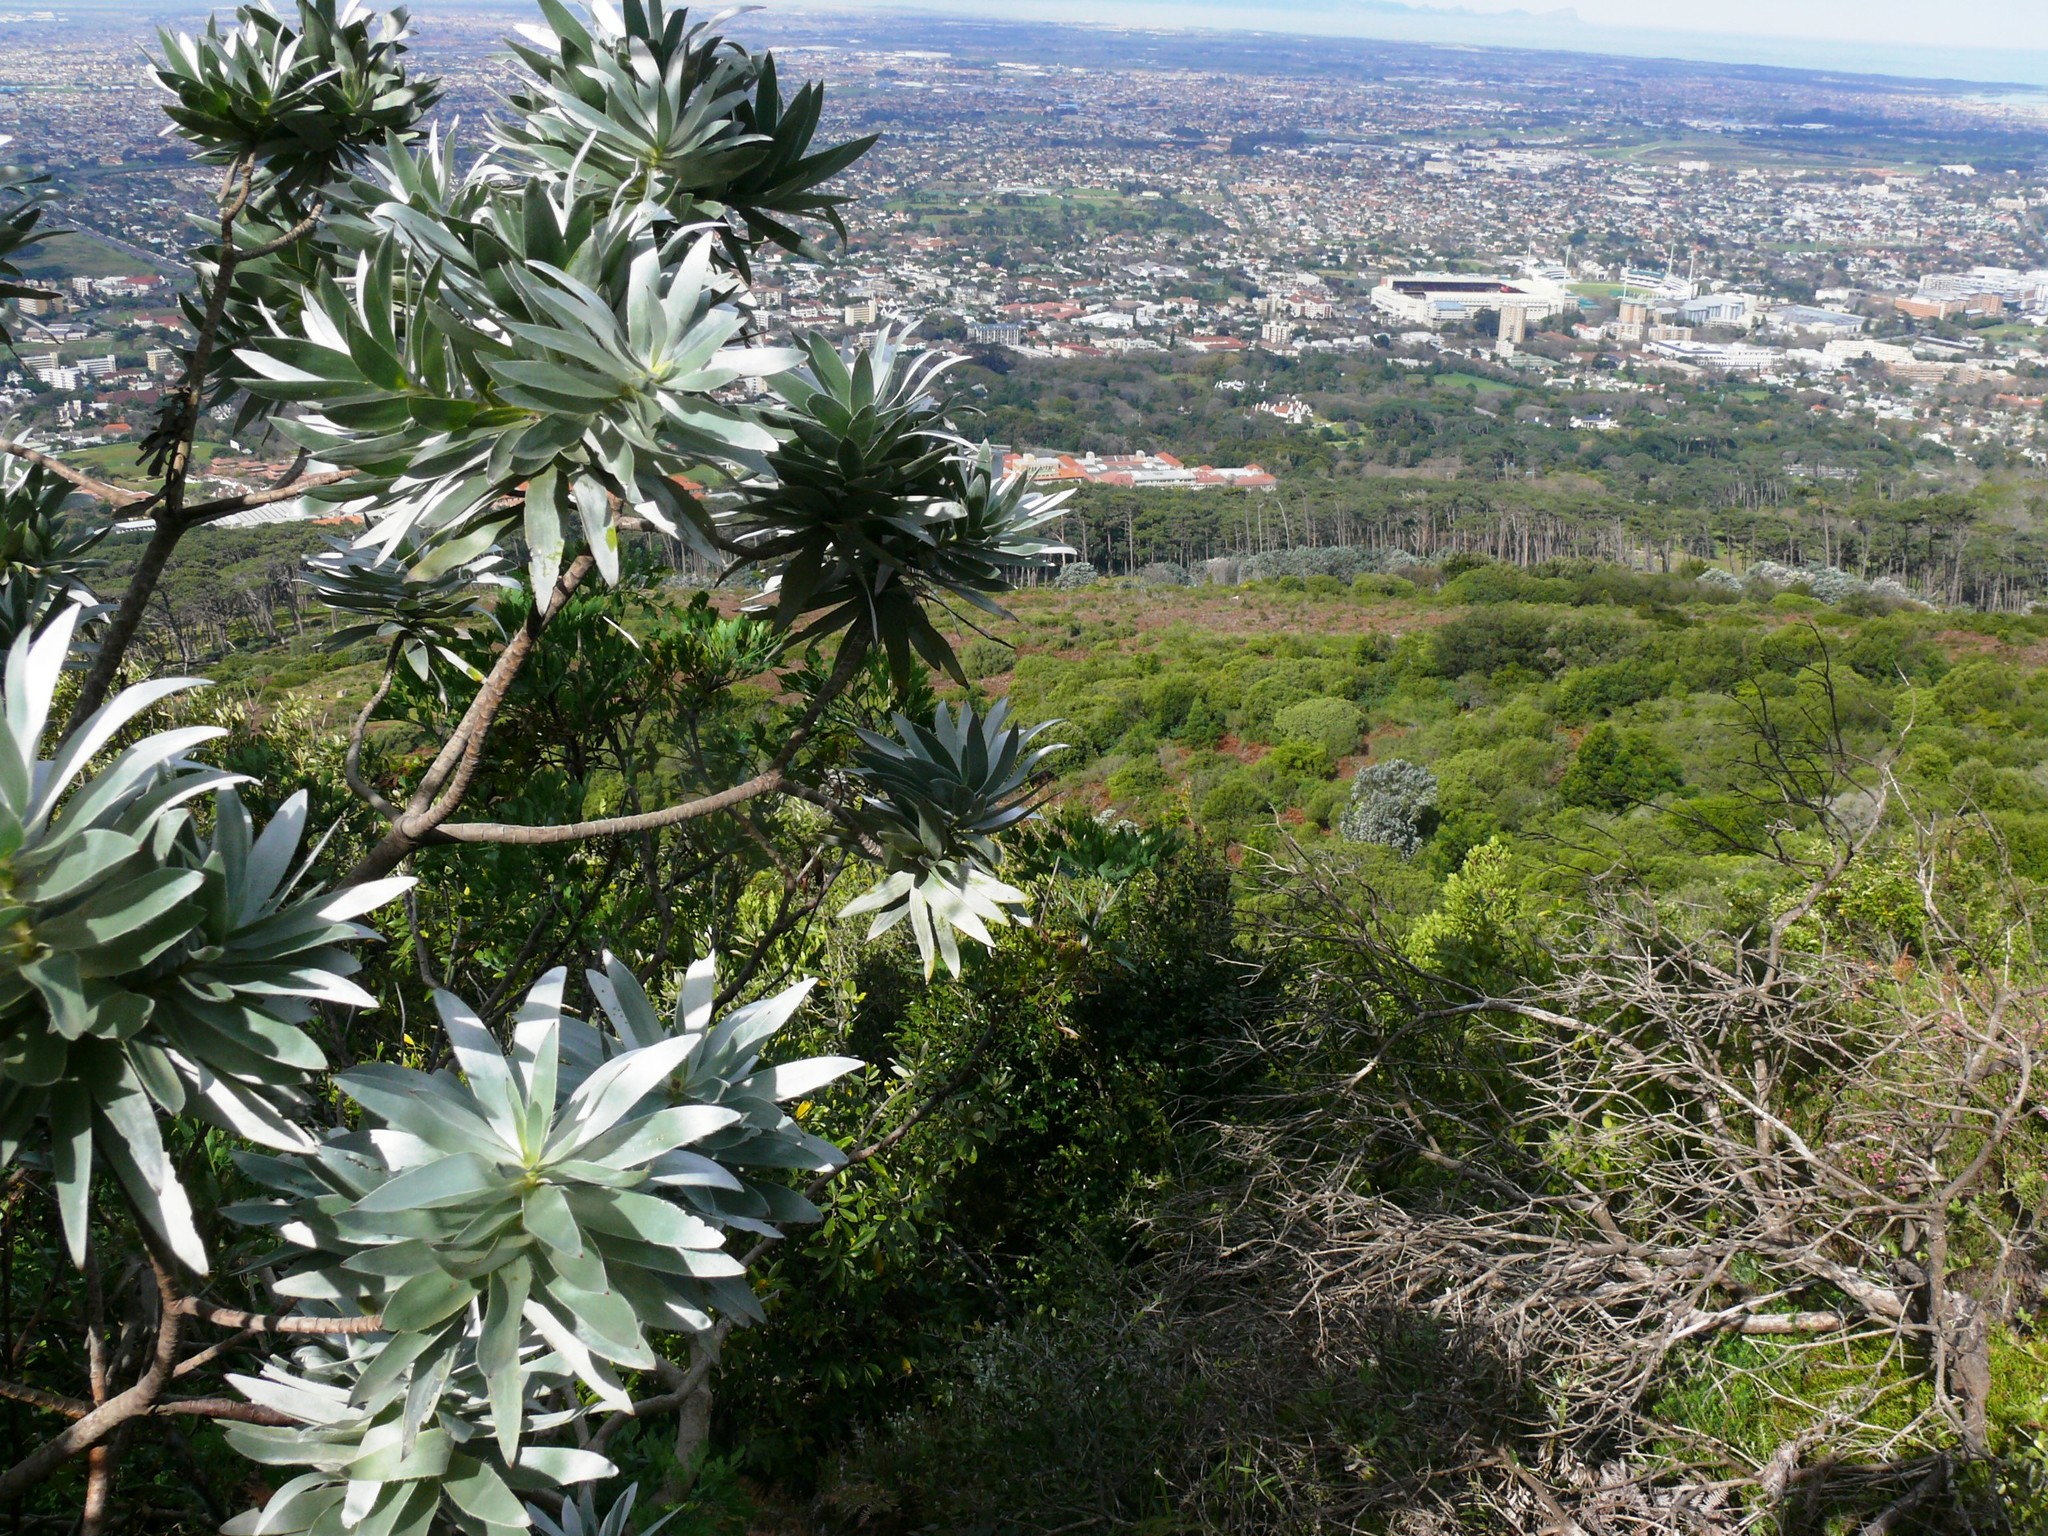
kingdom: Plantae
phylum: Tracheophyta
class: Magnoliopsida
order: Proteales
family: Proteaceae
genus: Leucadendron
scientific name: Leucadendron argenteum
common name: Cape silver tree
